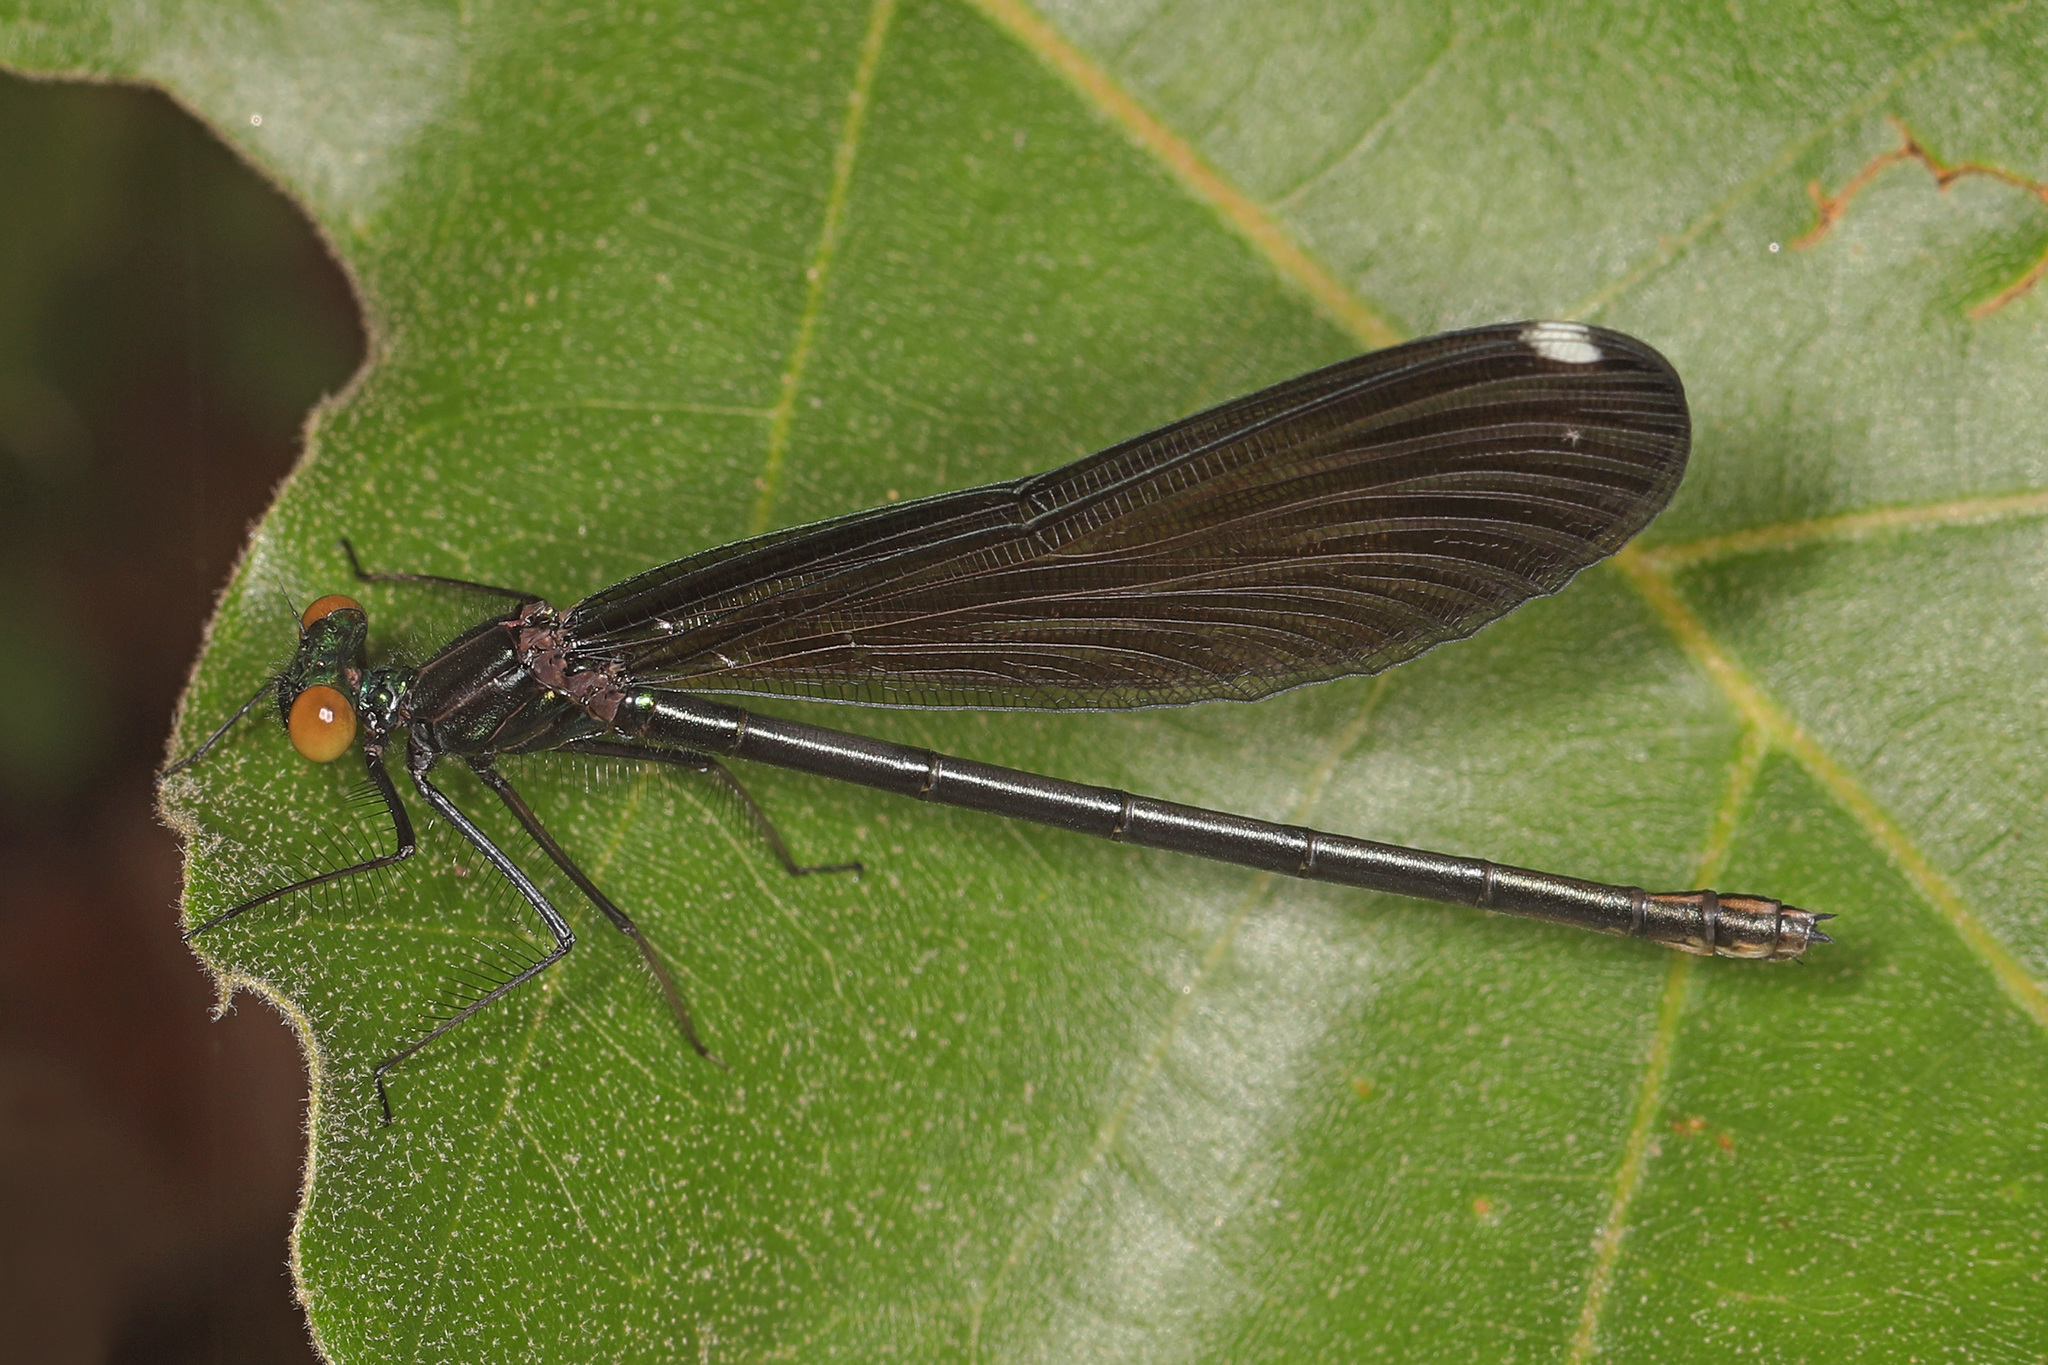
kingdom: Animalia
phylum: Arthropoda
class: Insecta
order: Odonata
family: Calopterygidae
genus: Calopteryx
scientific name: Calopteryx maculata
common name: Ebony jewelwing
